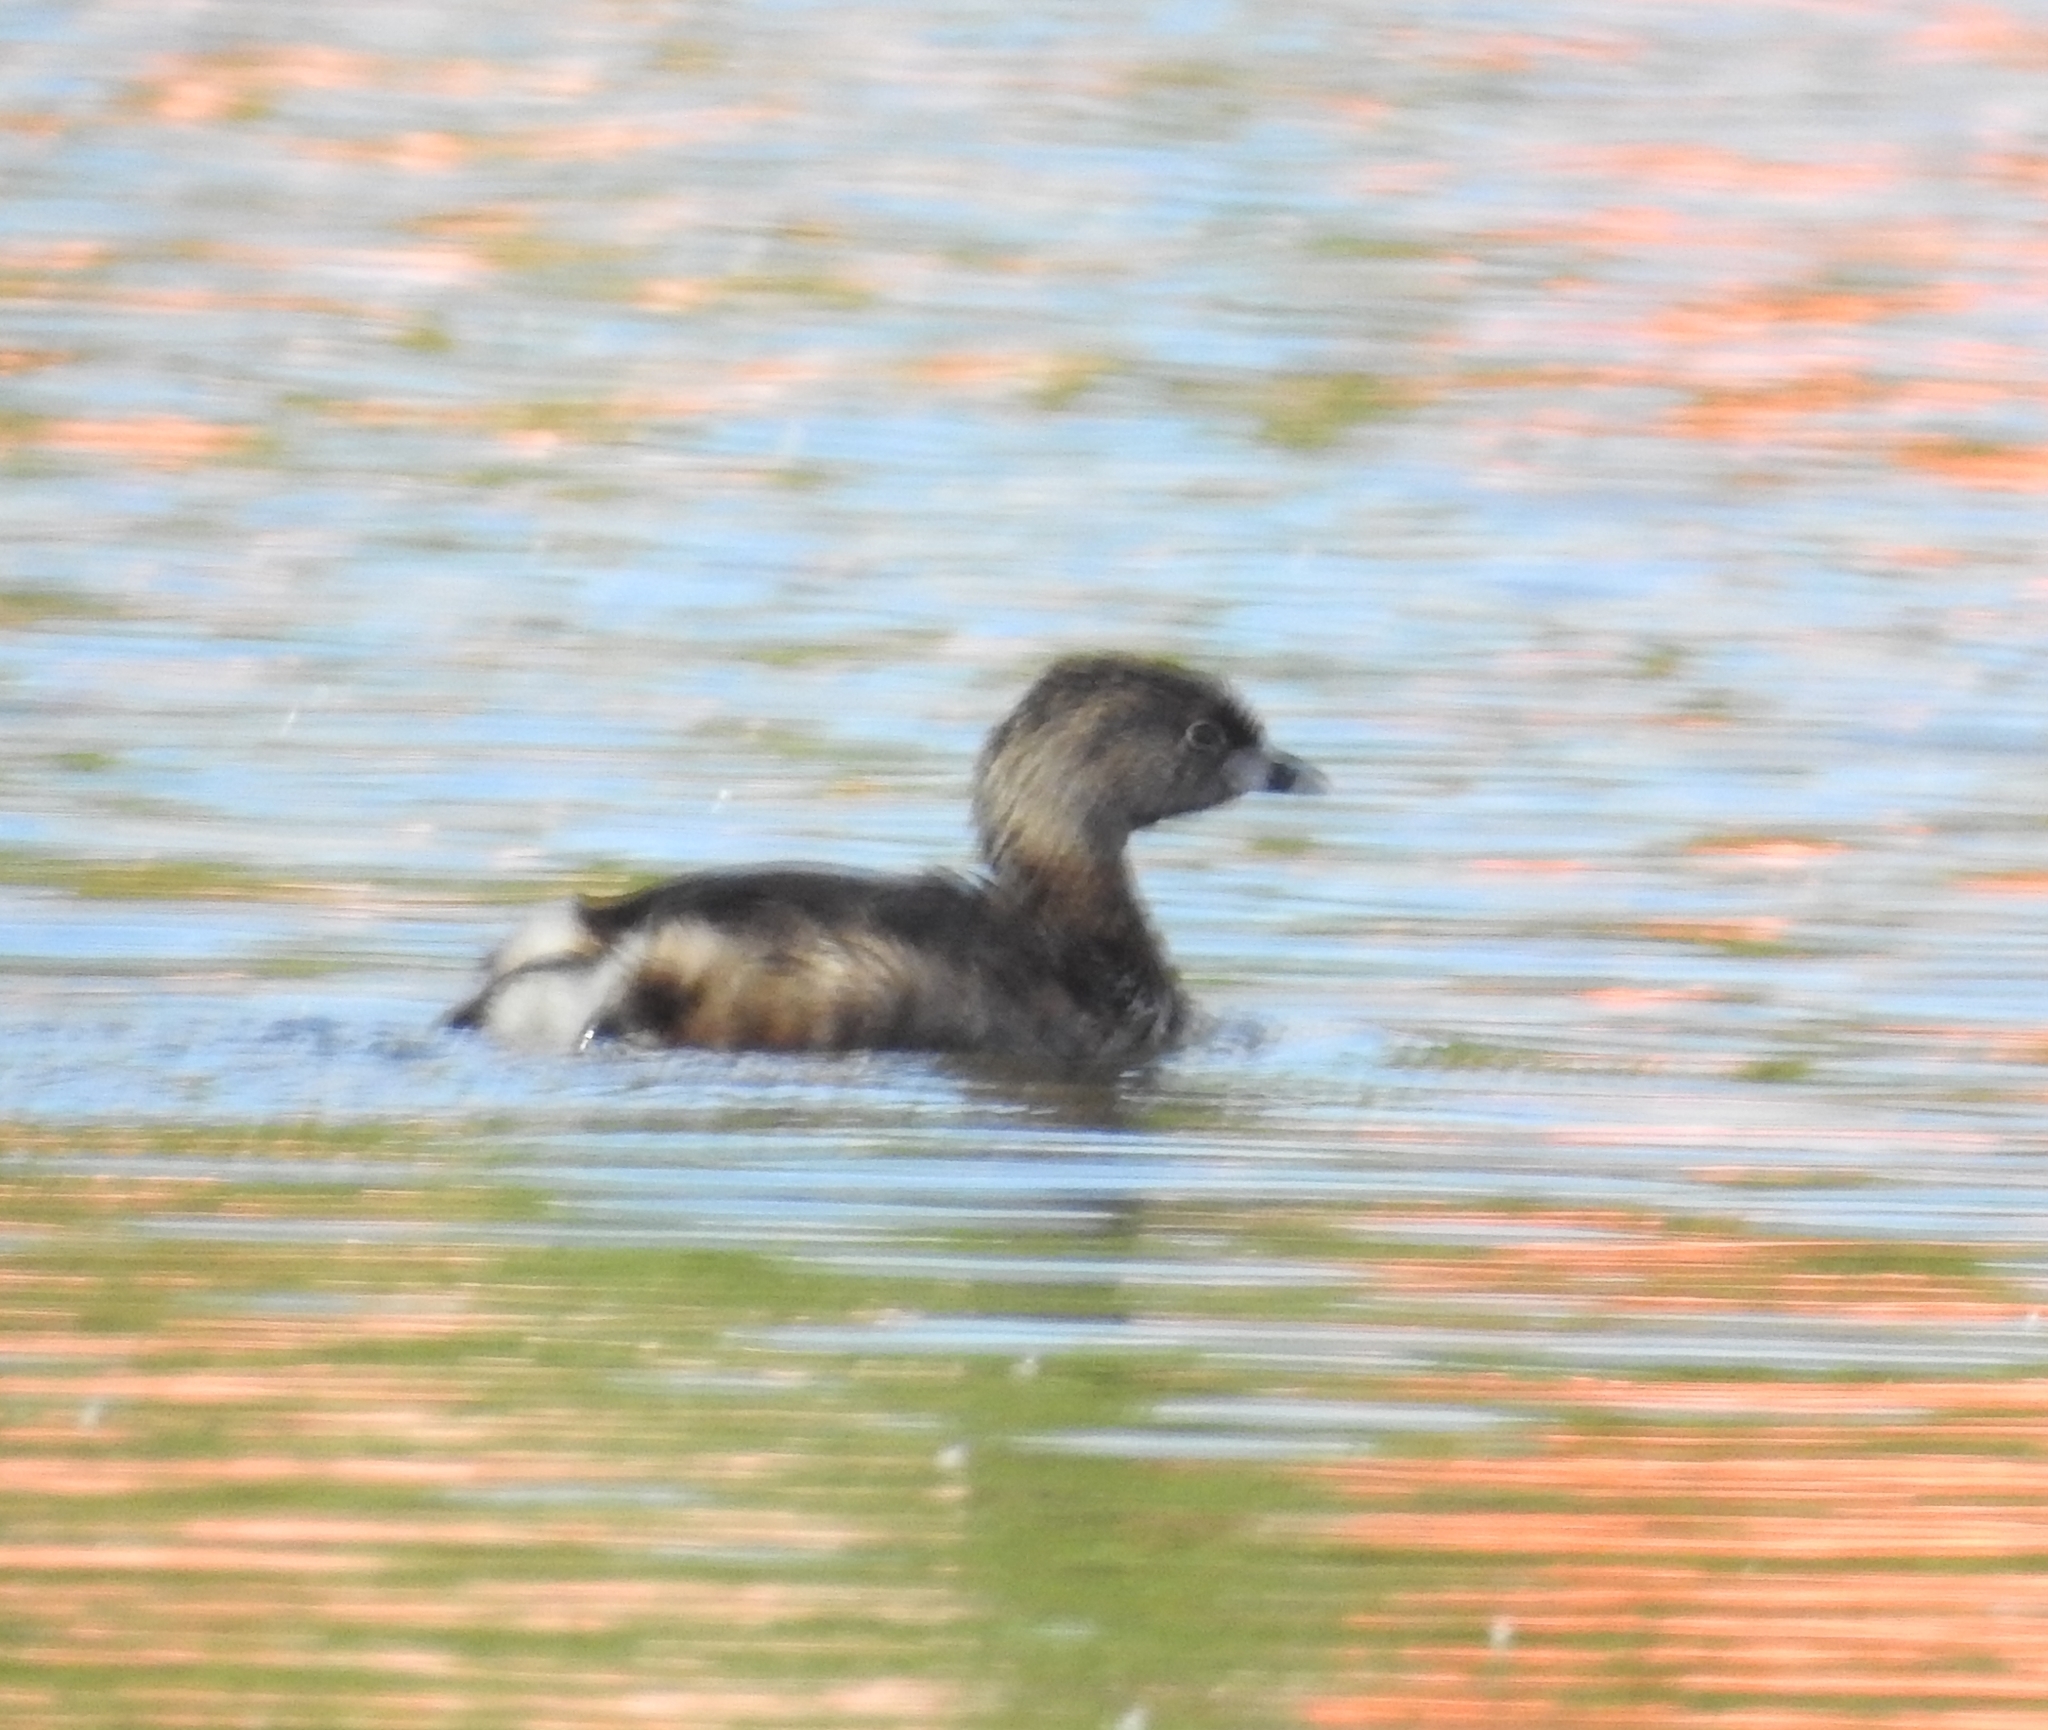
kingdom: Animalia
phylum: Chordata
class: Aves
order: Podicipediformes
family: Podicipedidae
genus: Podilymbus
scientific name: Podilymbus podiceps
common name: Pied-billed grebe
